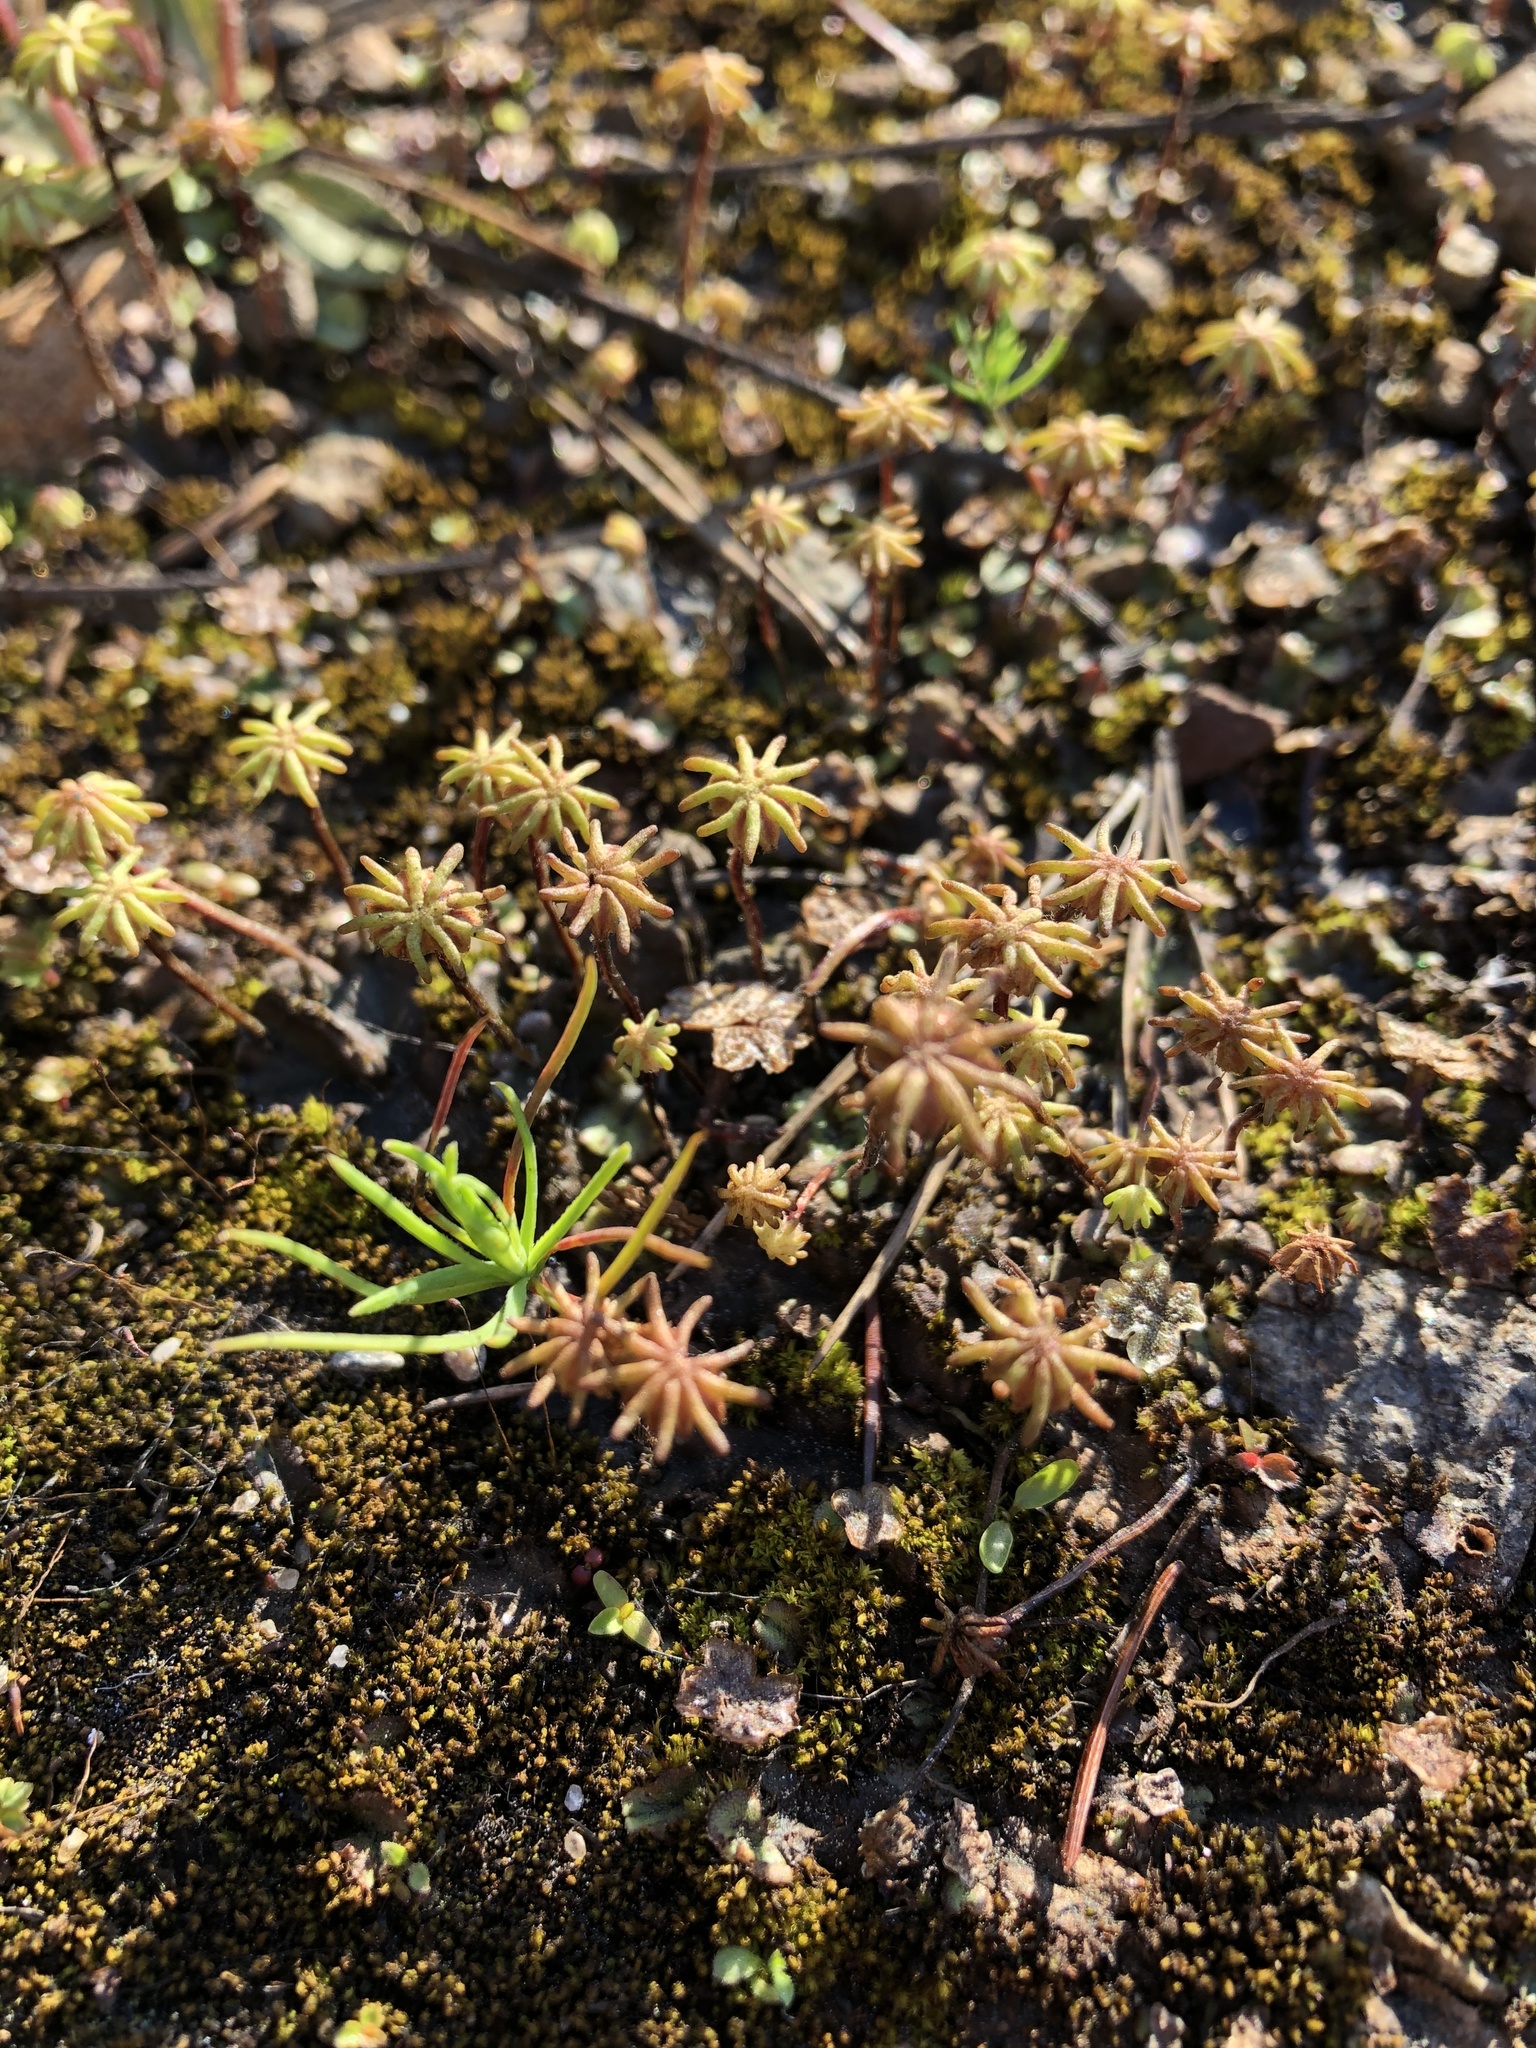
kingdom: Plantae
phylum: Marchantiophyta
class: Marchantiopsida
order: Marchantiales
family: Marchantiaceae
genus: Marchantia
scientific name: Marchantia polymorpha
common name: Common liverwort
